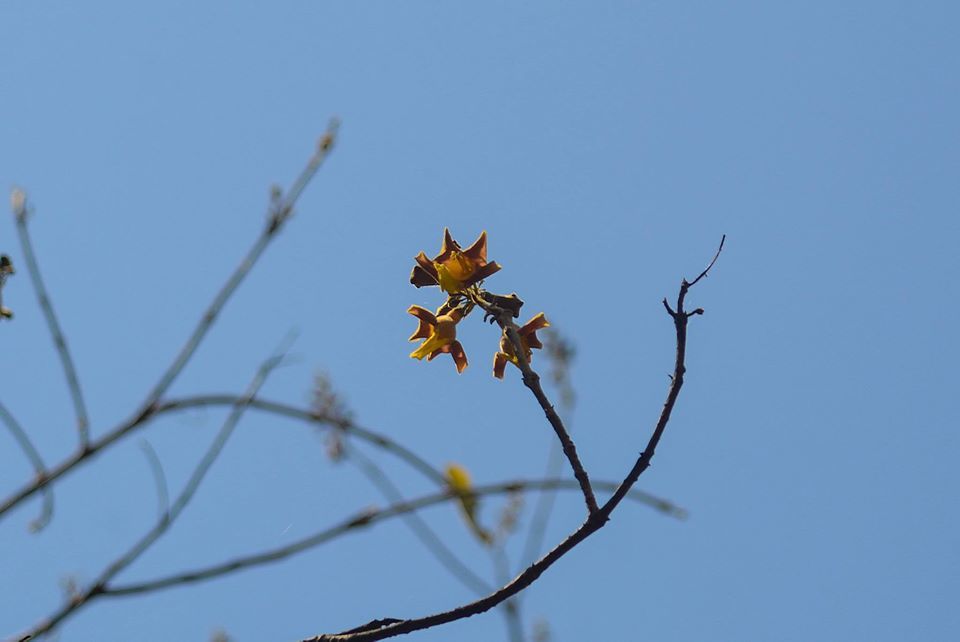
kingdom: Plantae
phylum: Tracheophyta
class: Magnoliopsida
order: Lamiales
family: Lamiaceae
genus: Gmelina
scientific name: Gmelina arborea
